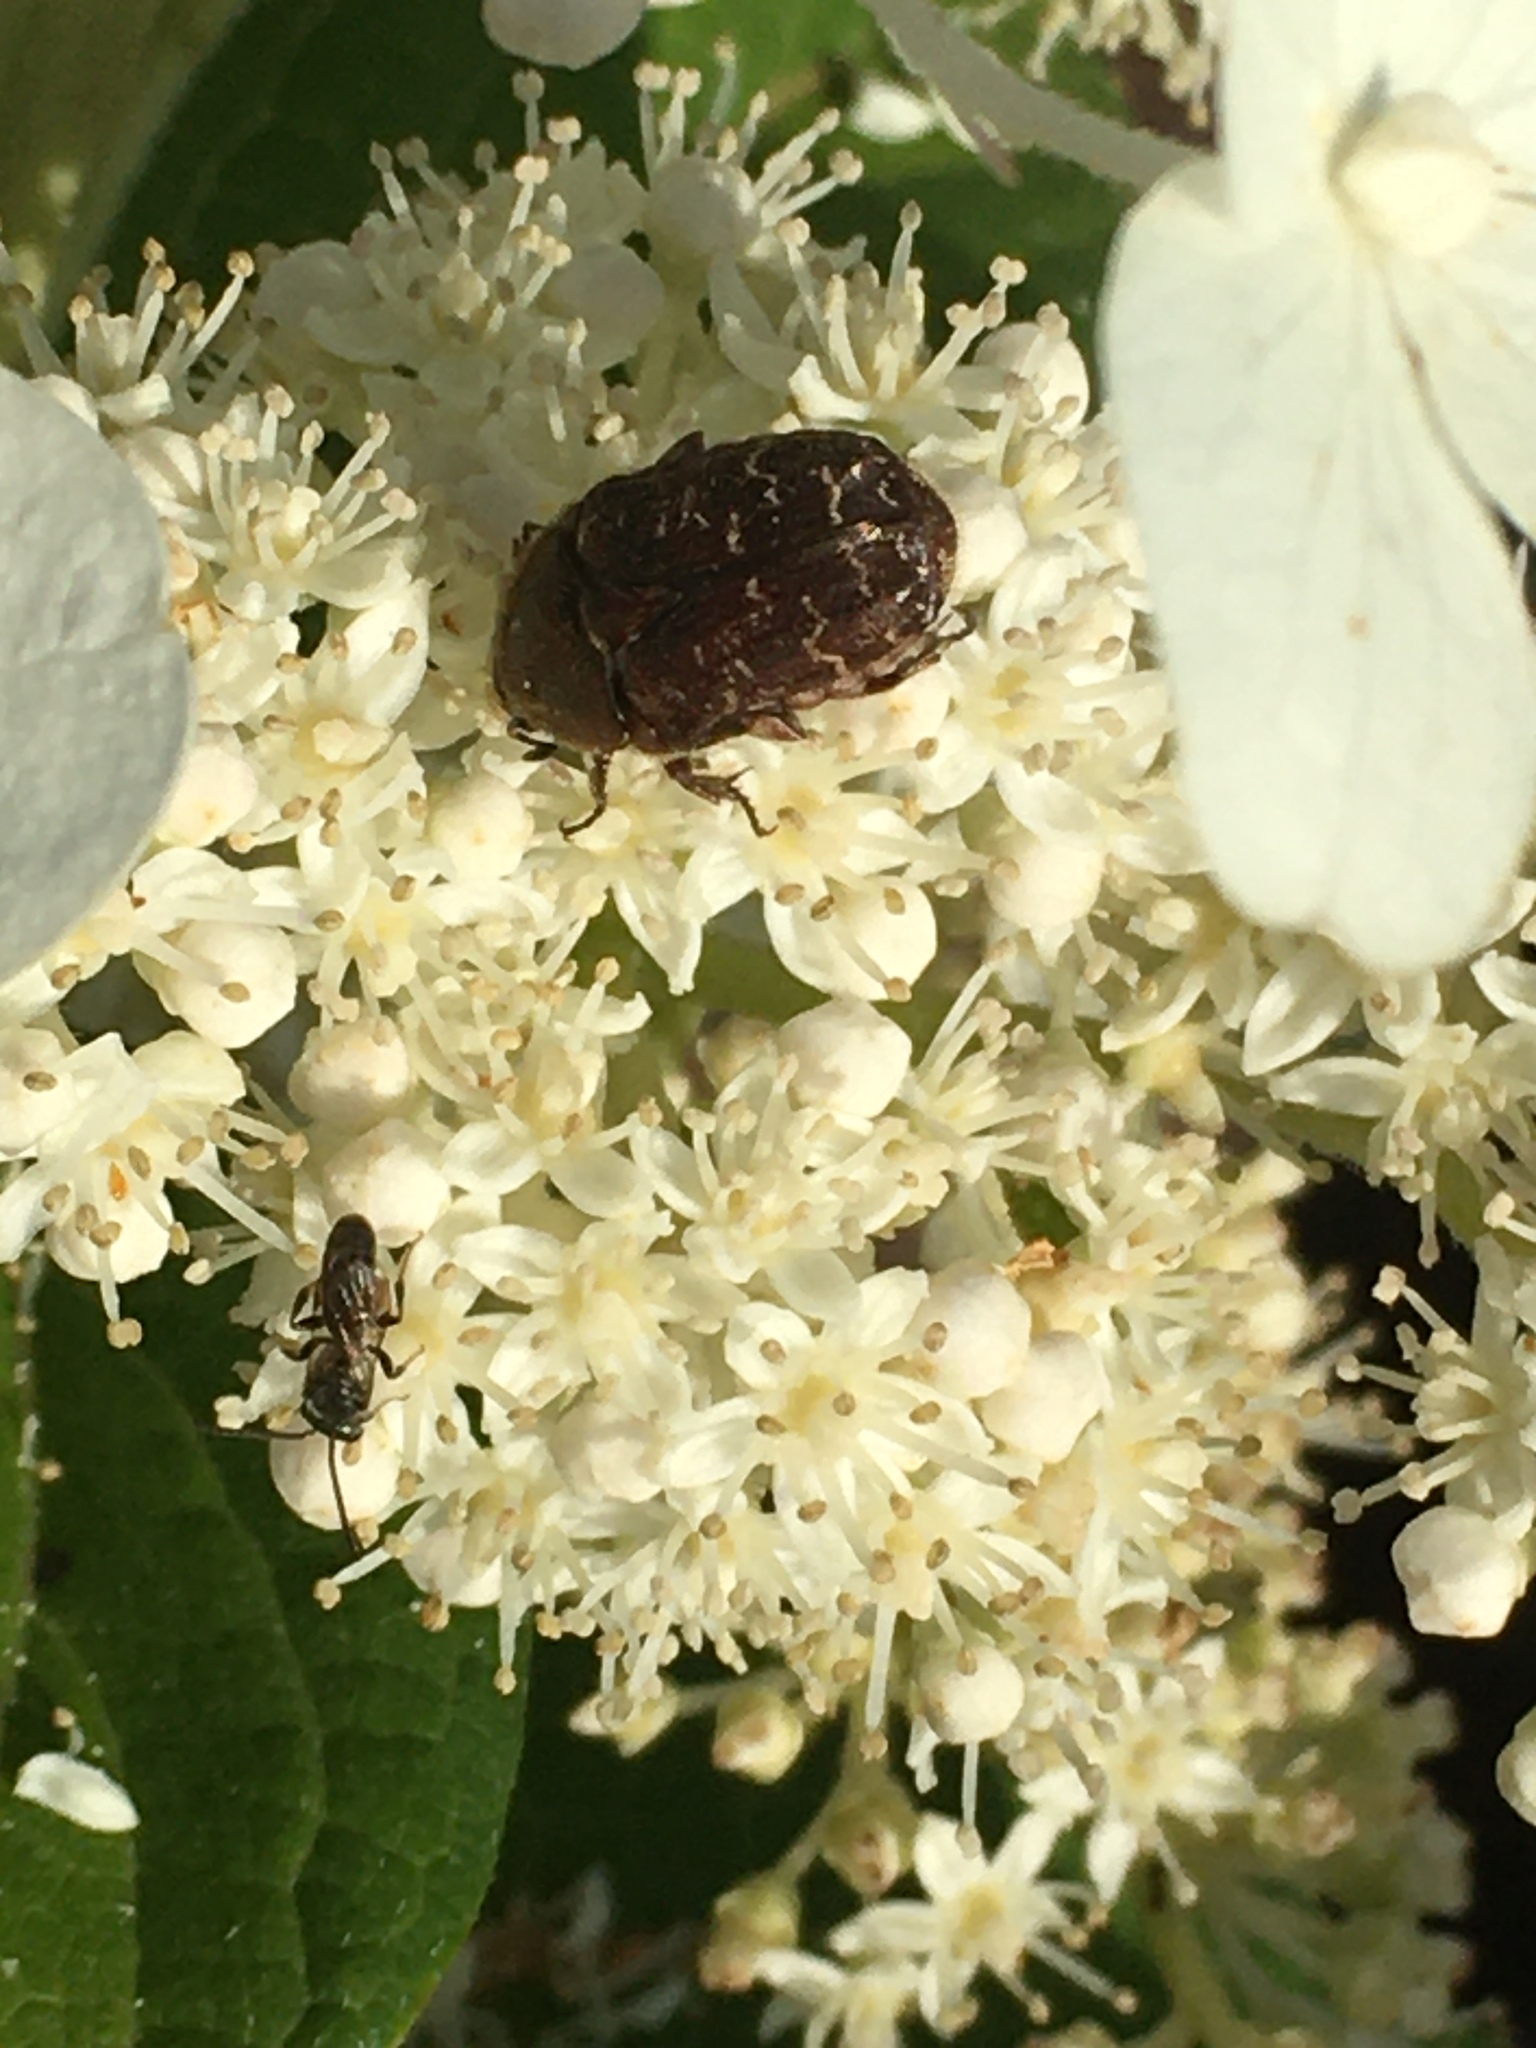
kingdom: Animalia
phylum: Arthropoda
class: Insecta
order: Coleoptera
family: Scarabaeidae
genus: Euphoria
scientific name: Euphoria sepulcralis
